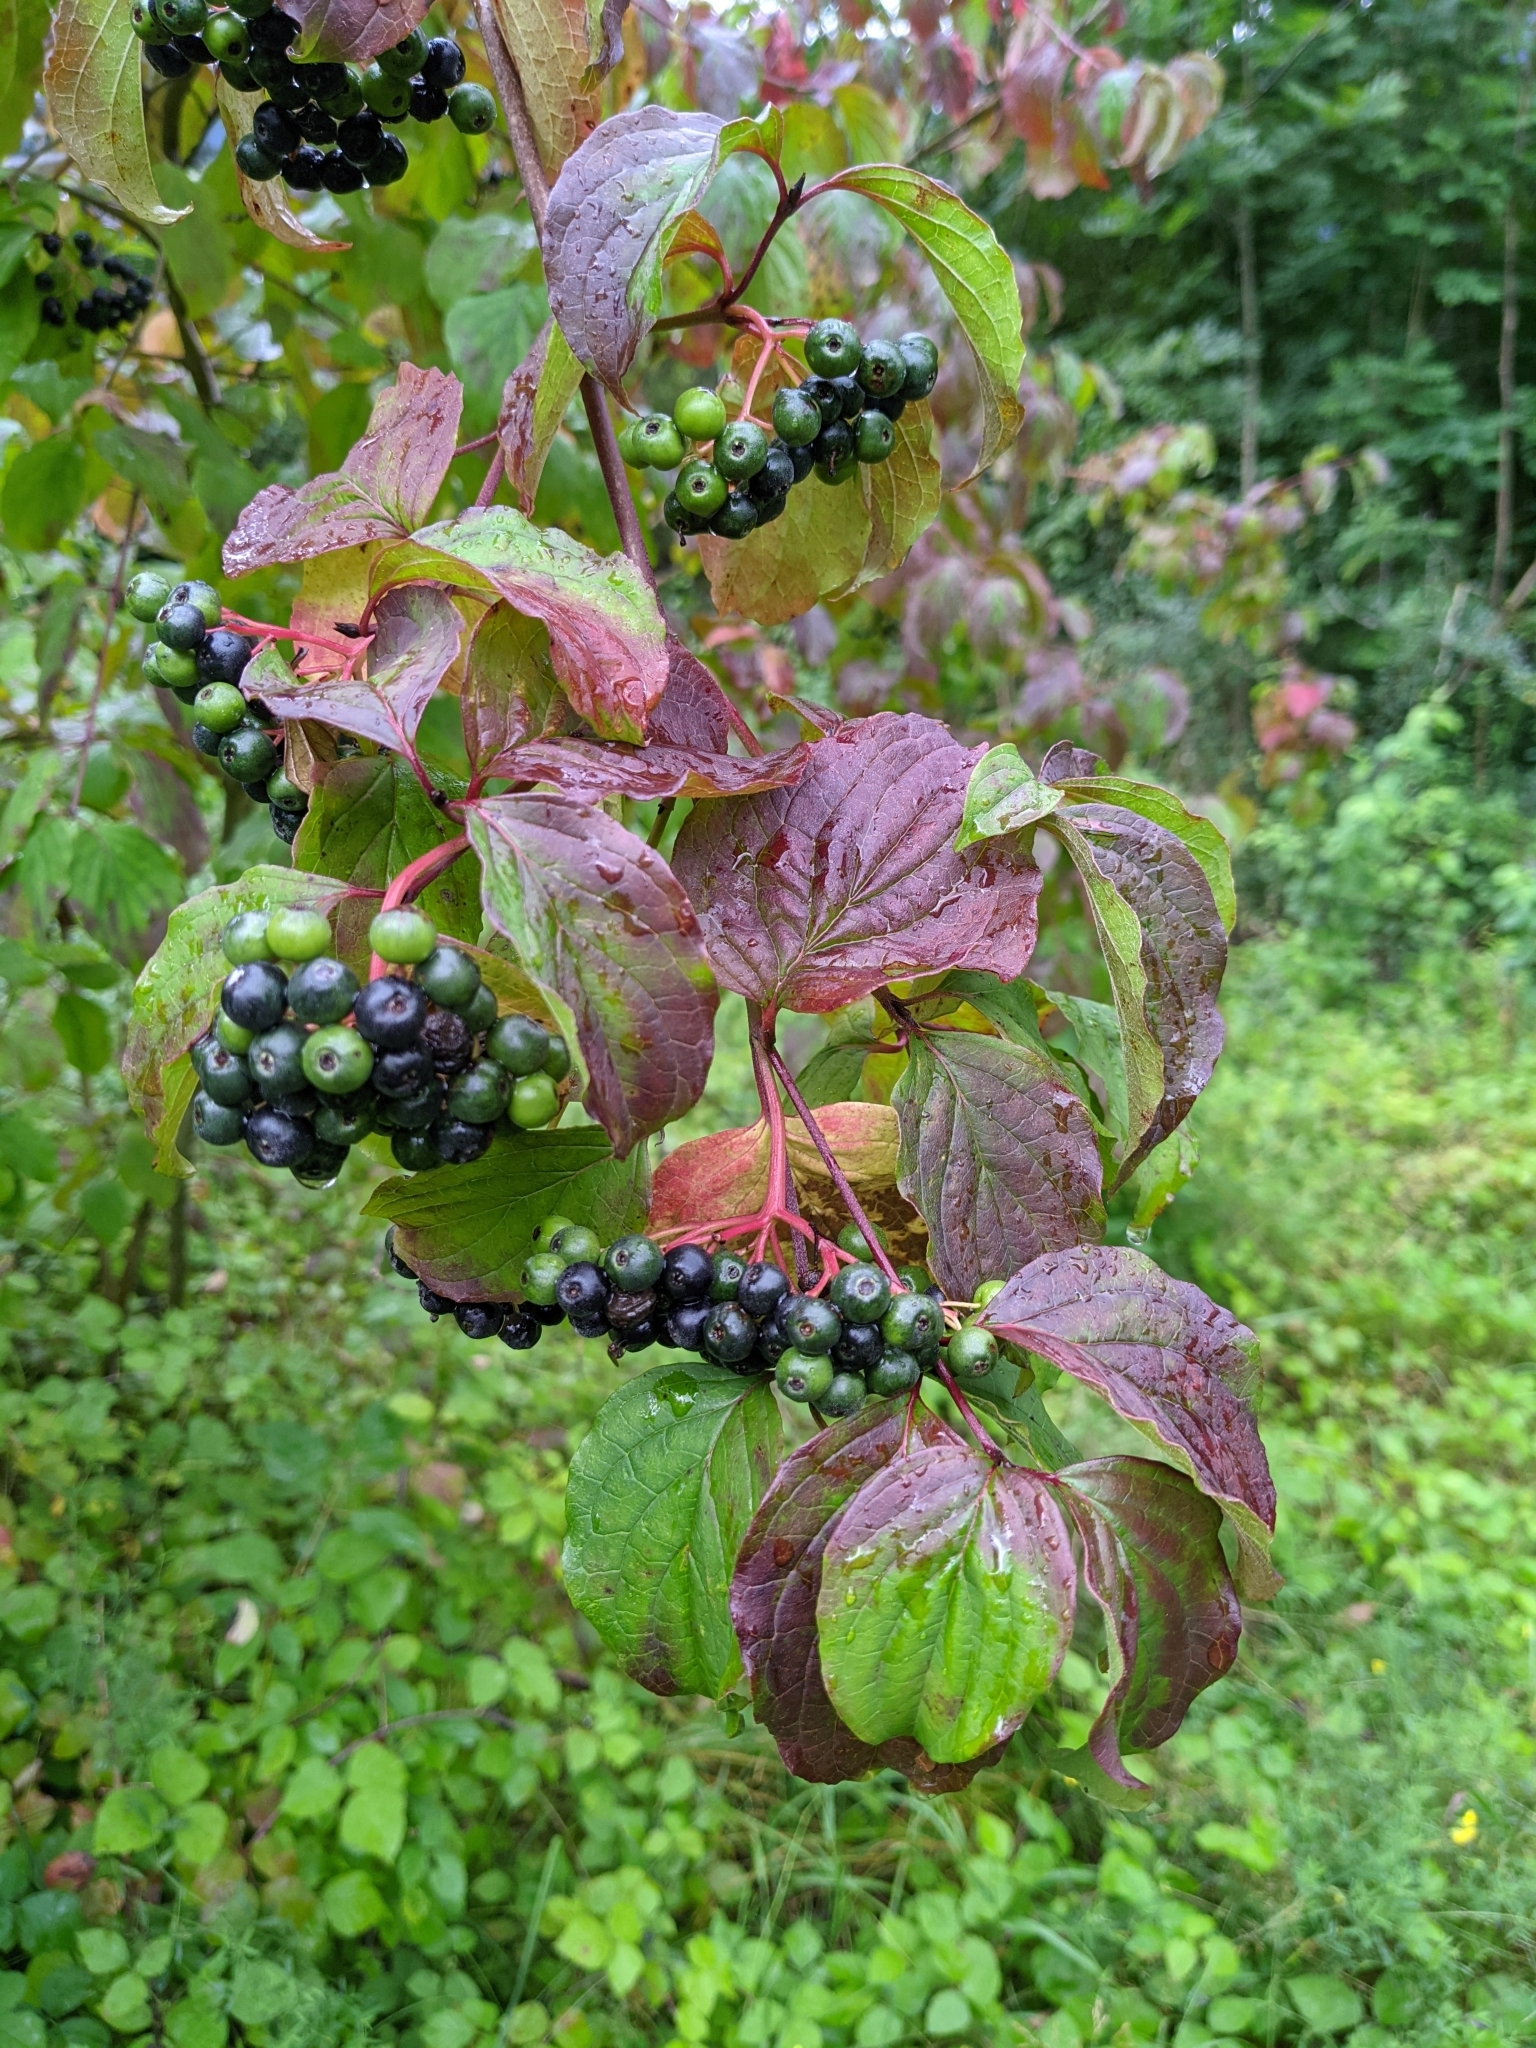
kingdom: Plantae
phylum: Tracheophyta
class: Magnoliopsida
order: Cornales
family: Cornaceae
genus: Cornus
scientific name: Cornus sanguinea
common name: Dogwood
